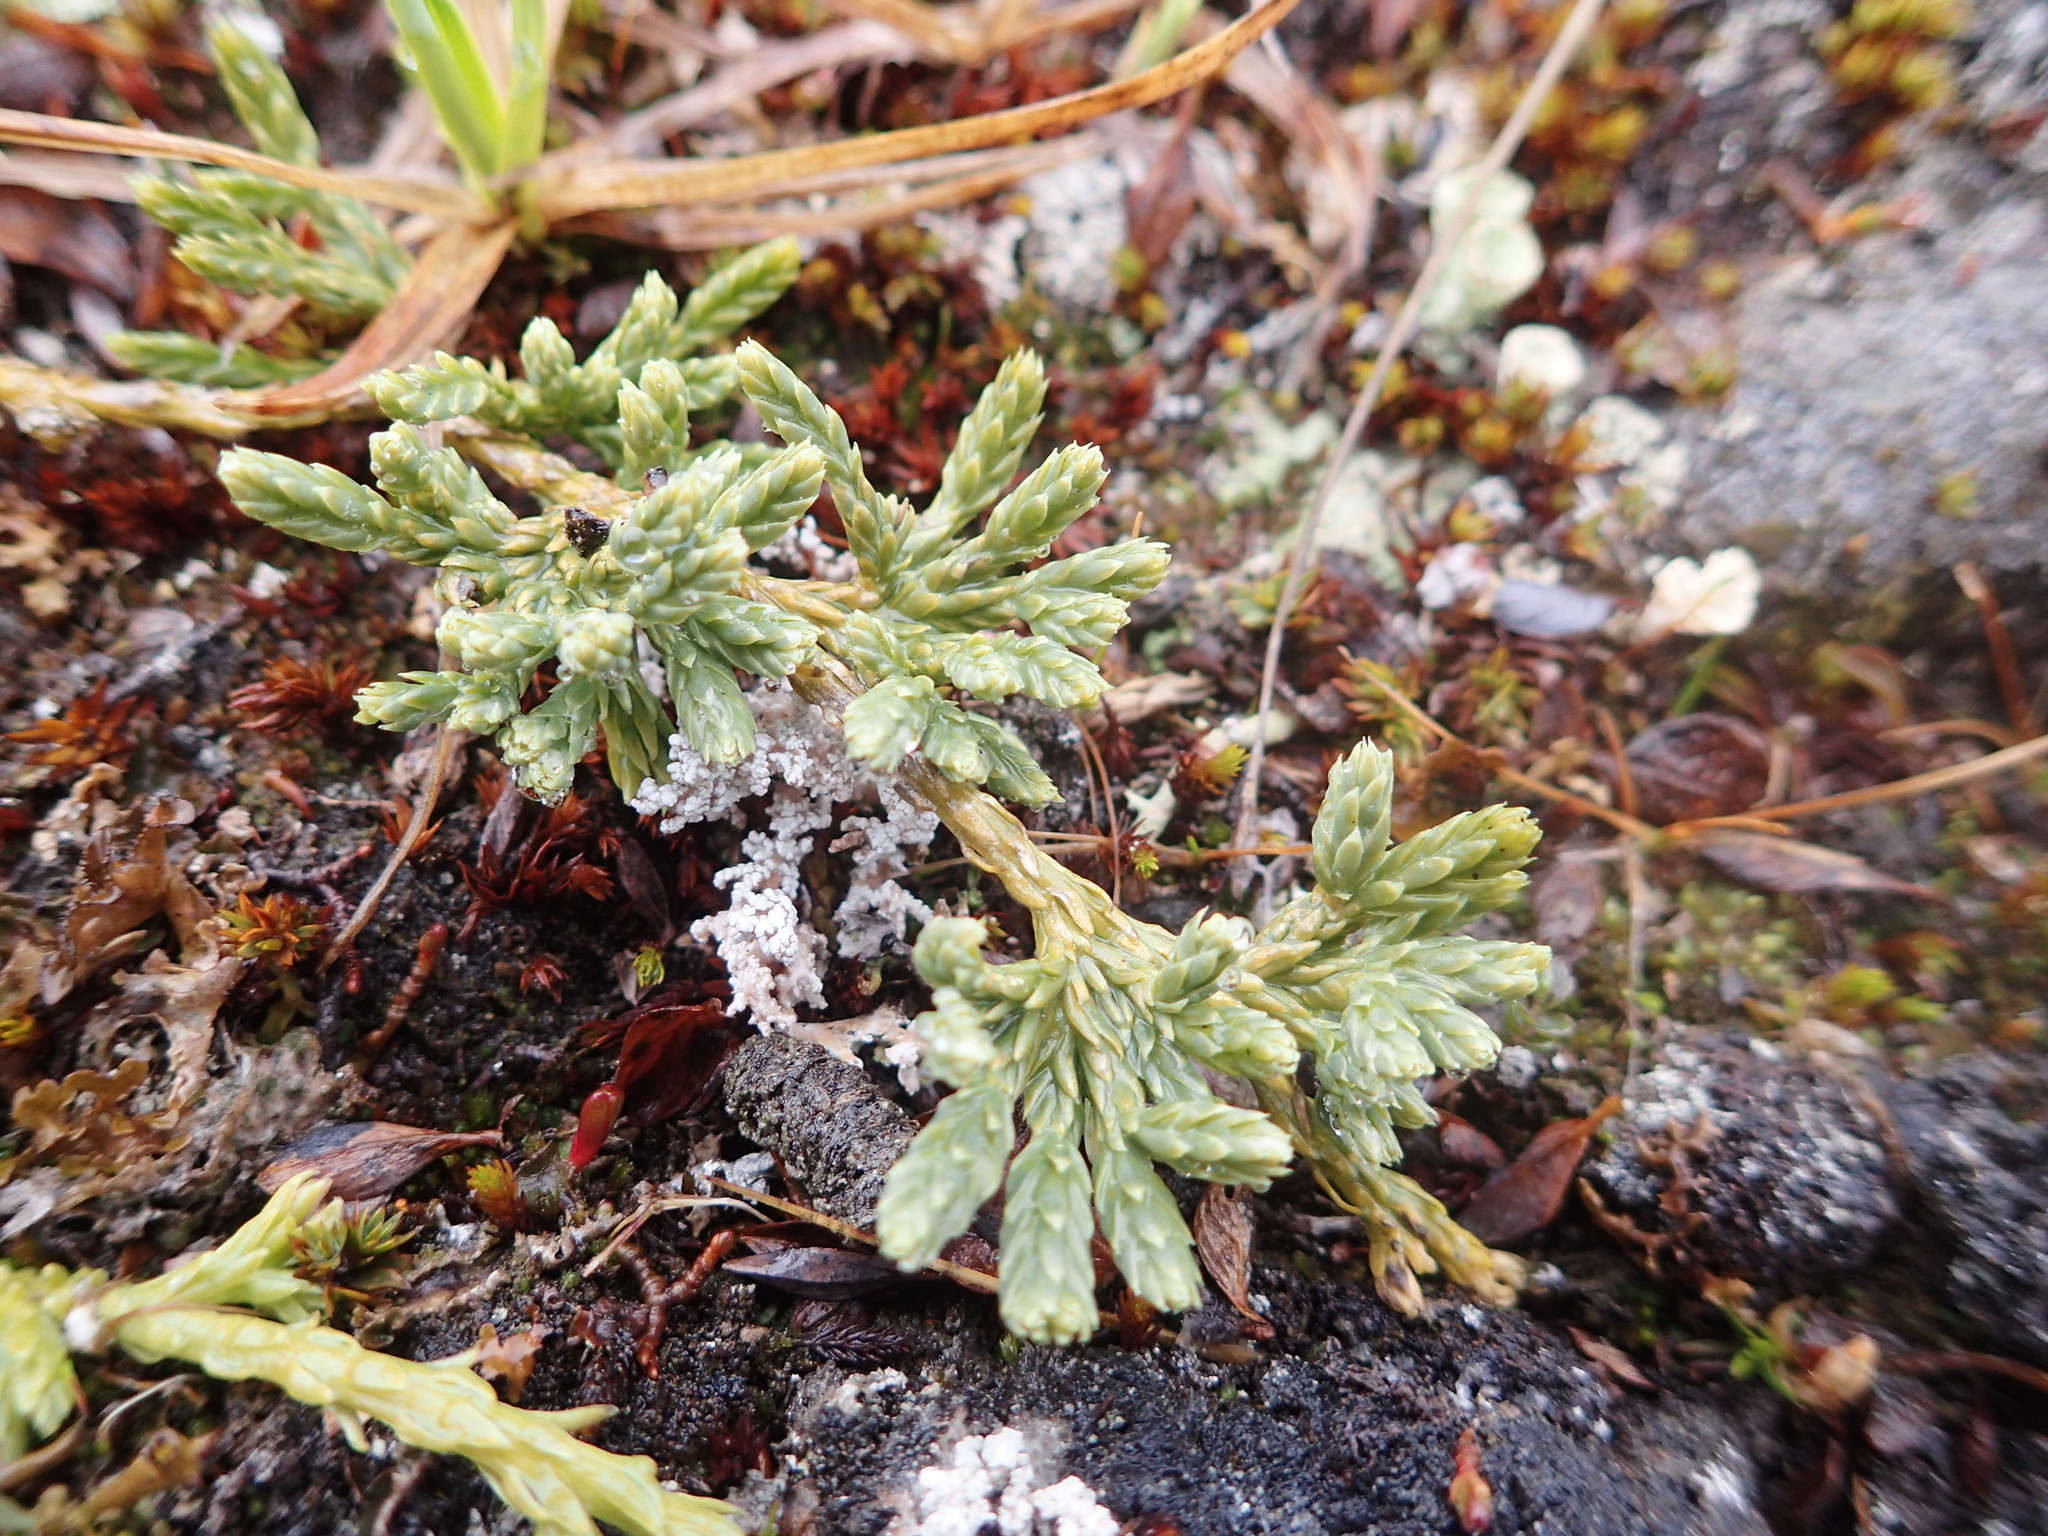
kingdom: Plantae
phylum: Tracheophyta
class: Lycopodiopsida
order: Lycopodiales
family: Lycopodiaceae
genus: Diphasiastrum
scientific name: Diphasiastrum alpinum
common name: Alpine clubmoss
